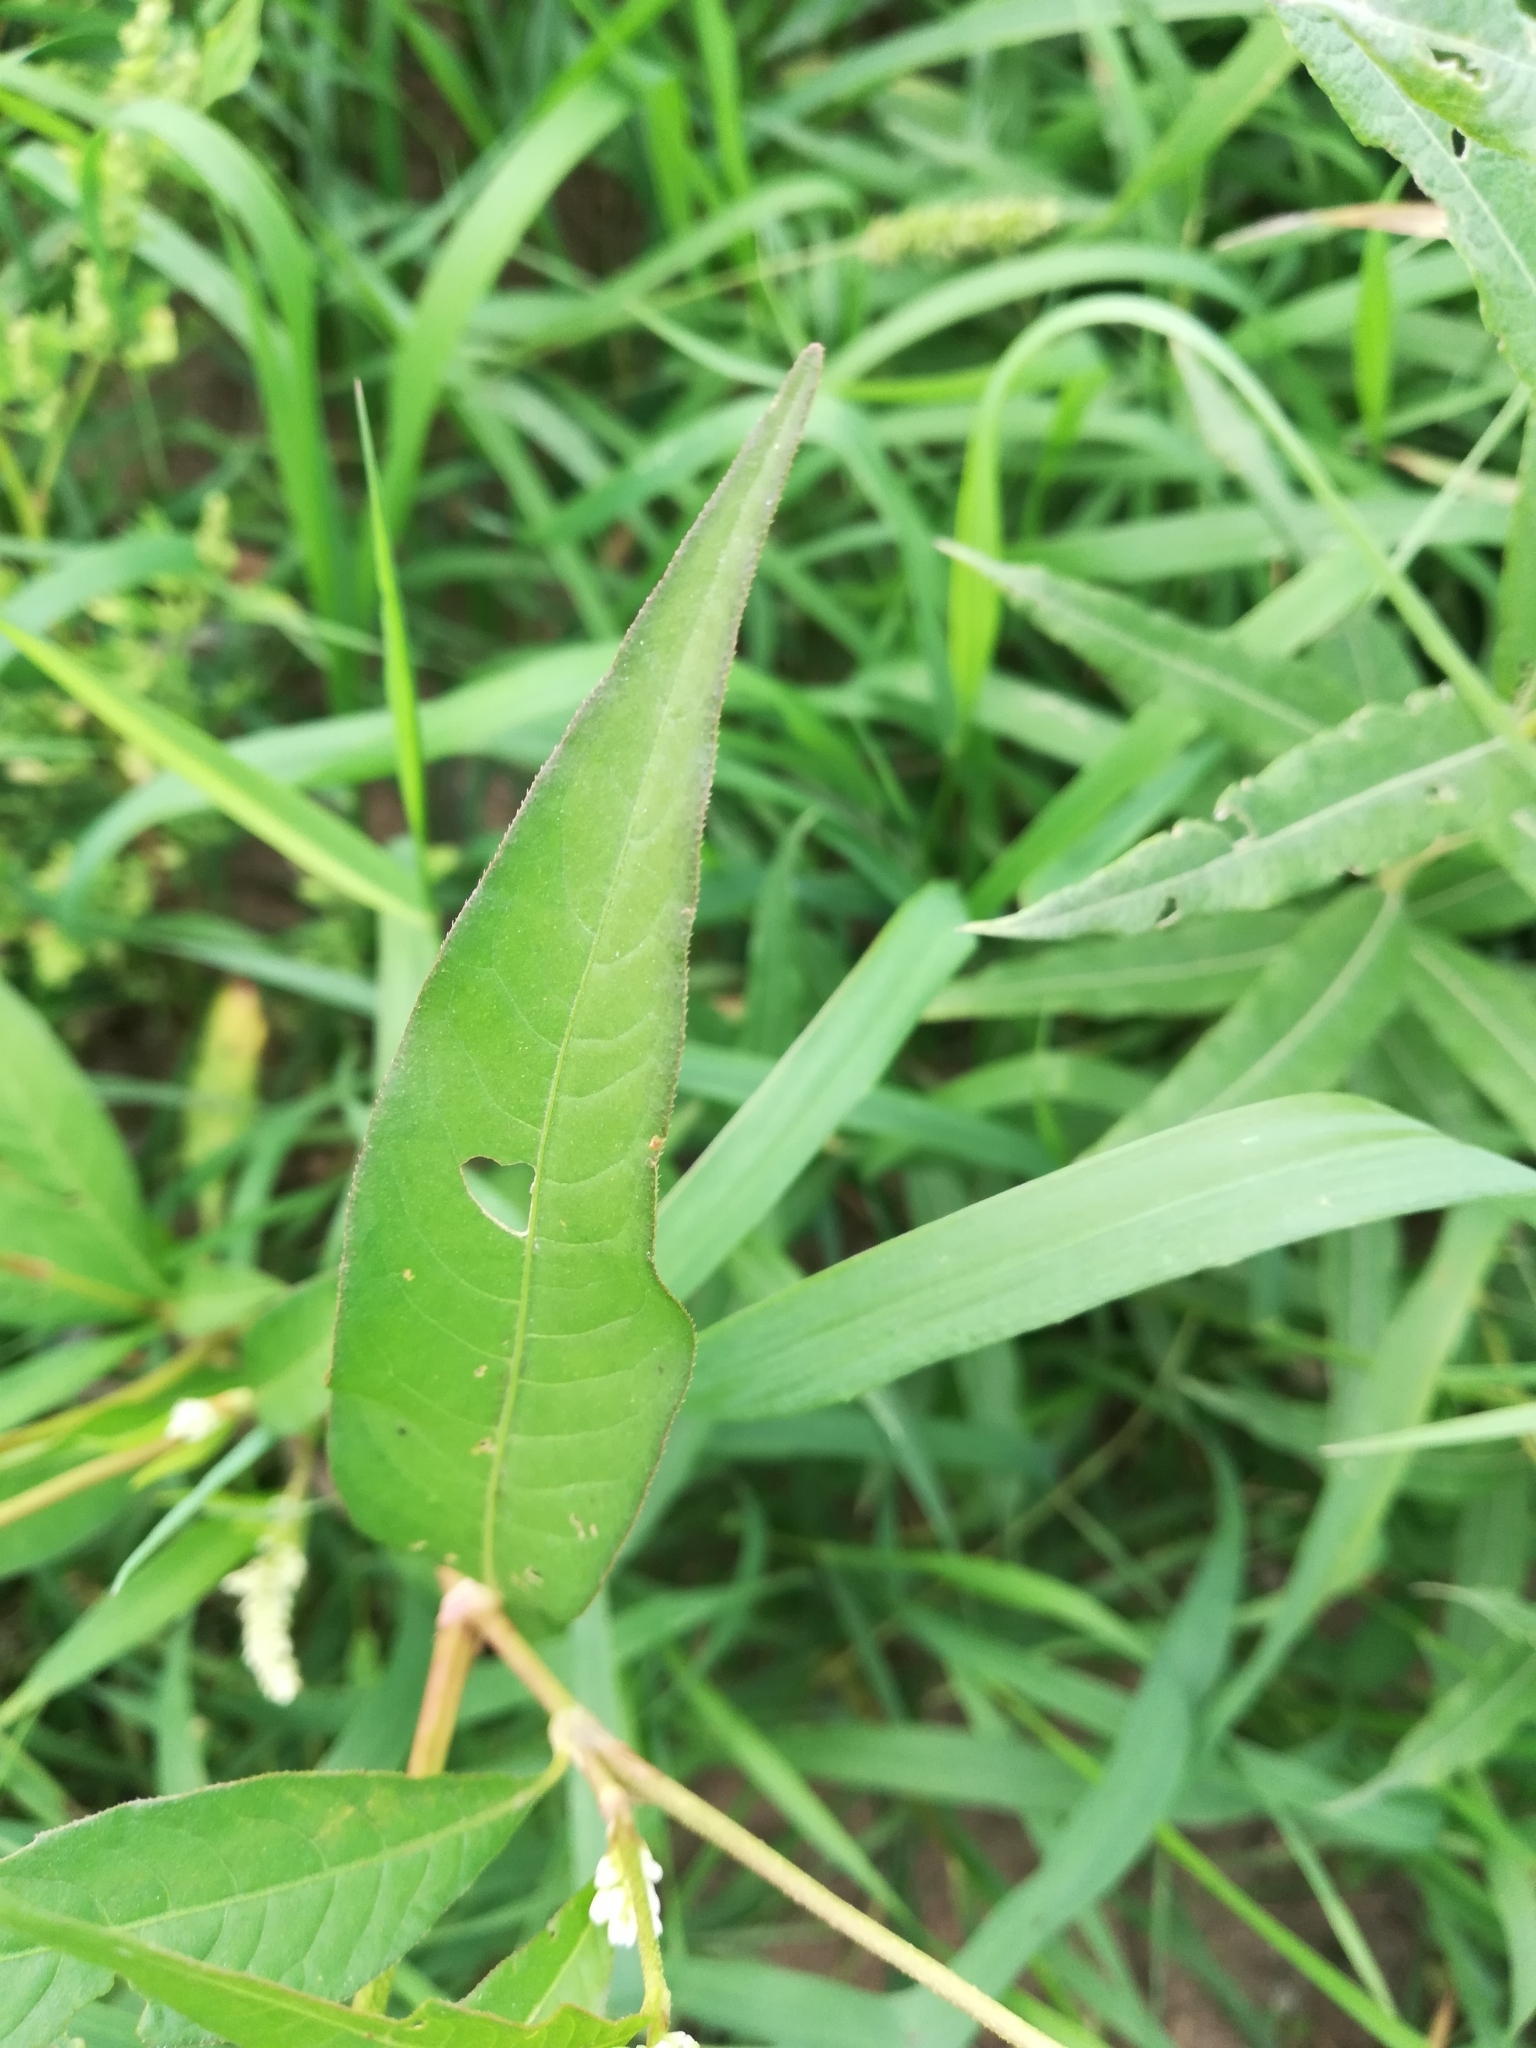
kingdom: Plantae
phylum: Tracheophyta
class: Magnoliopsida
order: Caryophyllales
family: Polygonaceae
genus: Persicaria
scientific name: Persicaria lapathifolia
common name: Curlytop knotweed
